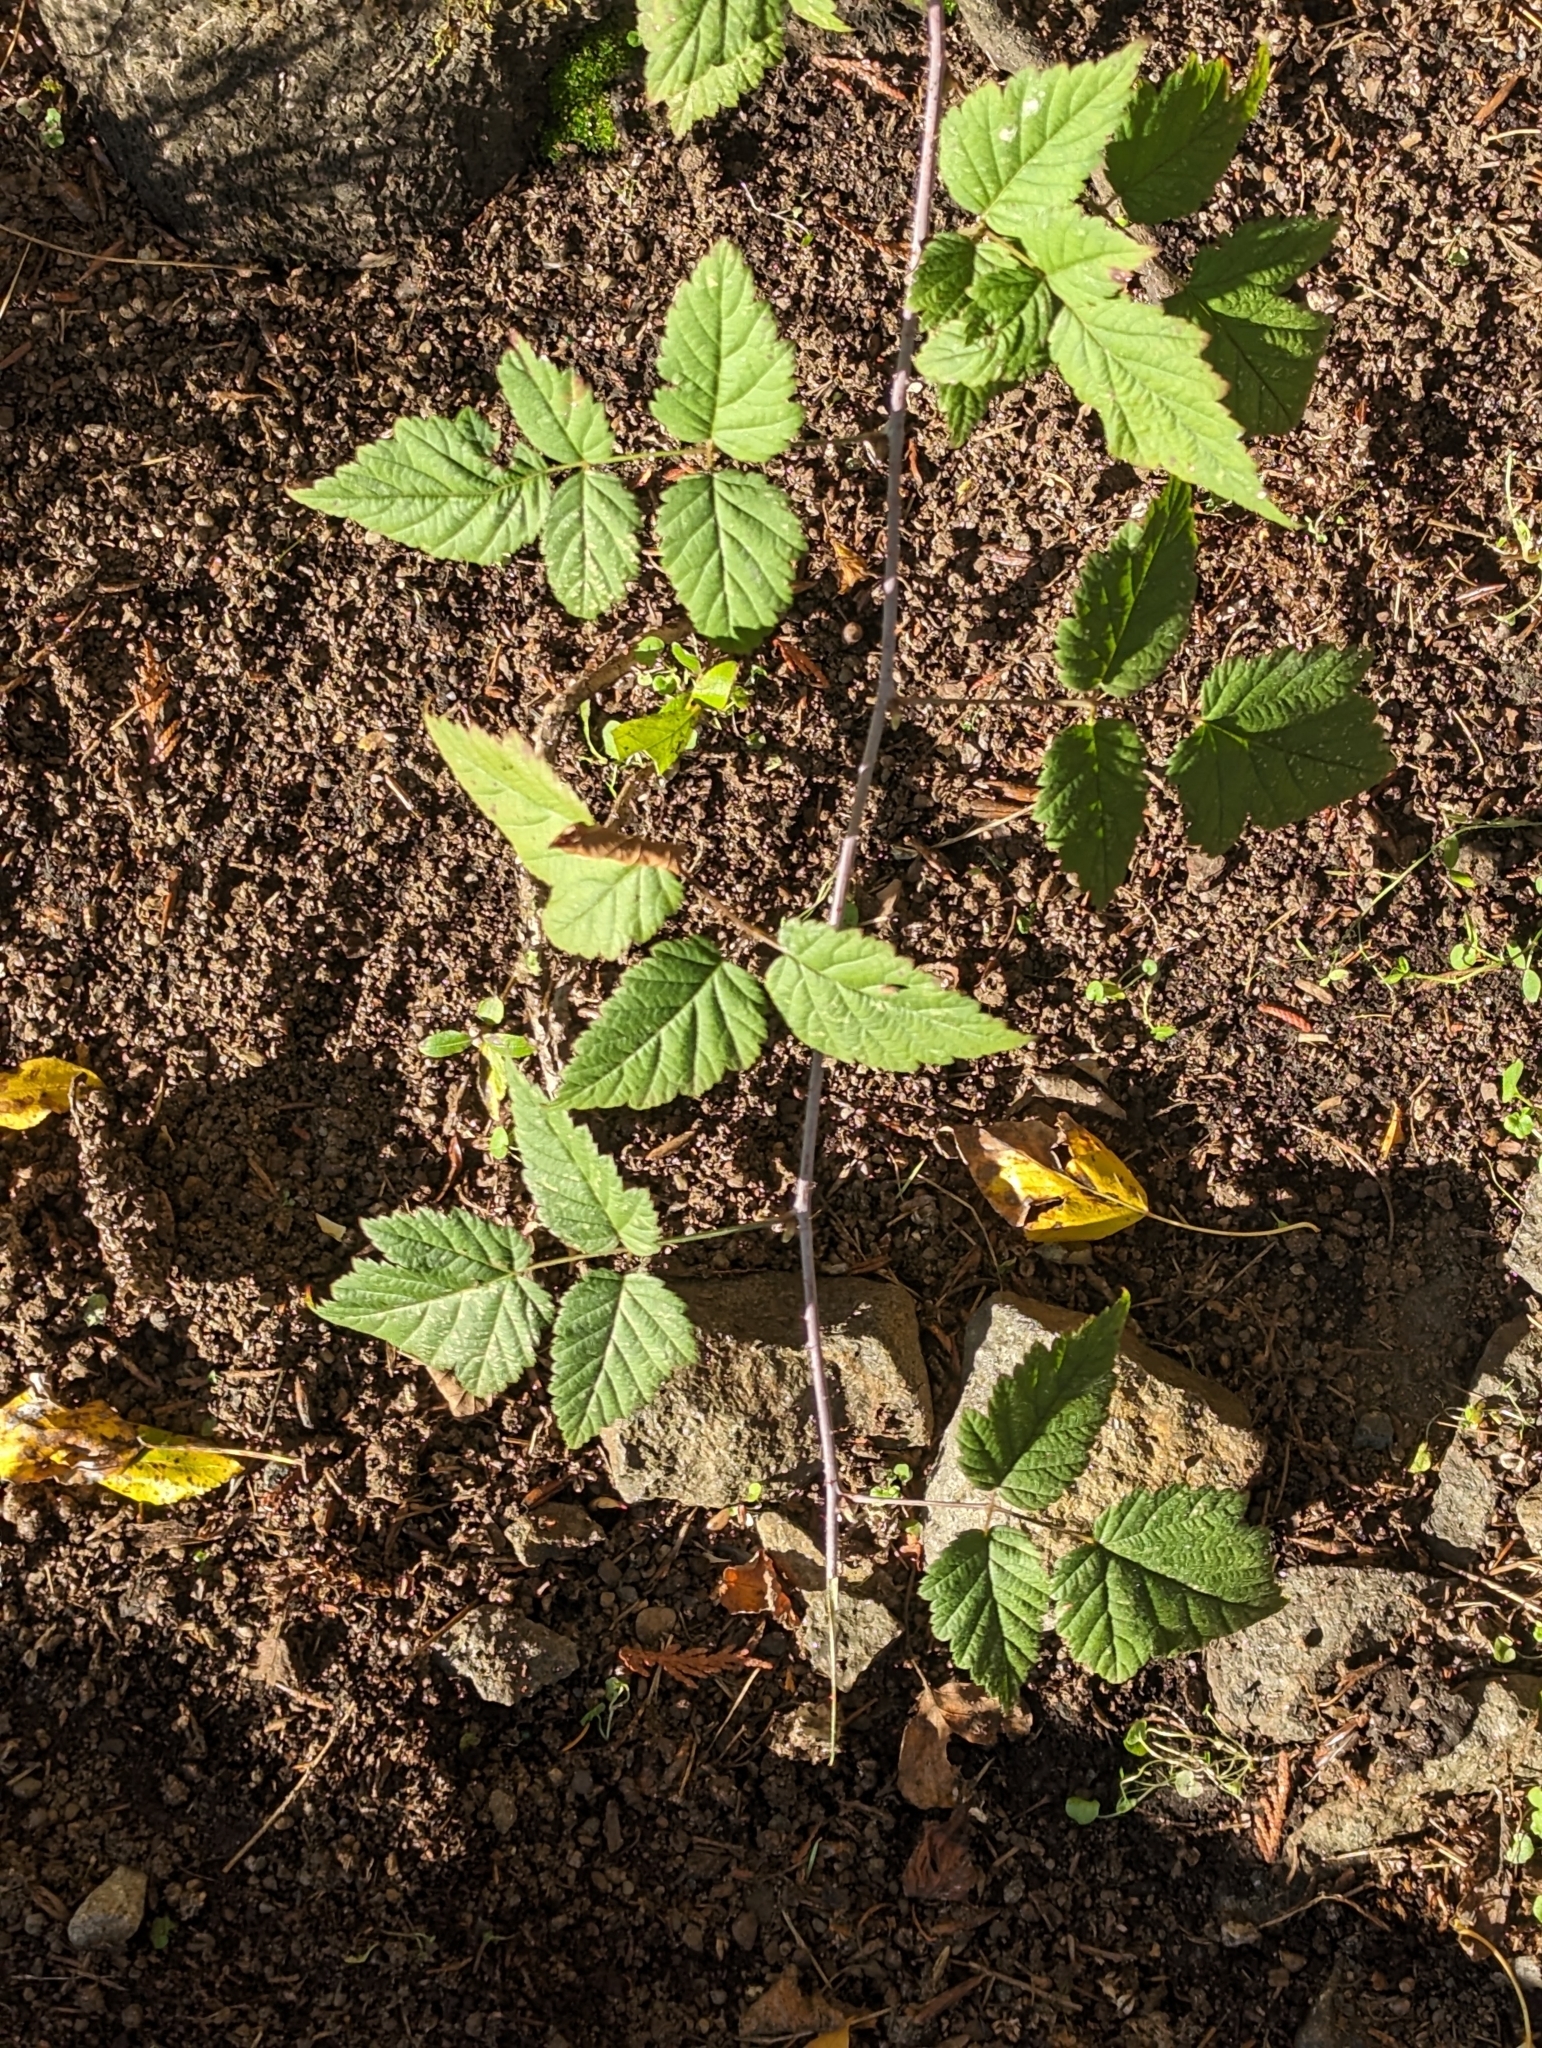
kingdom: Plantae
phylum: Tracheophyta
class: Magnoliopsida
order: Rosales
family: Rosaceae
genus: Rubus
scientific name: Rubus ursinus
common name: Pacific blackberry
